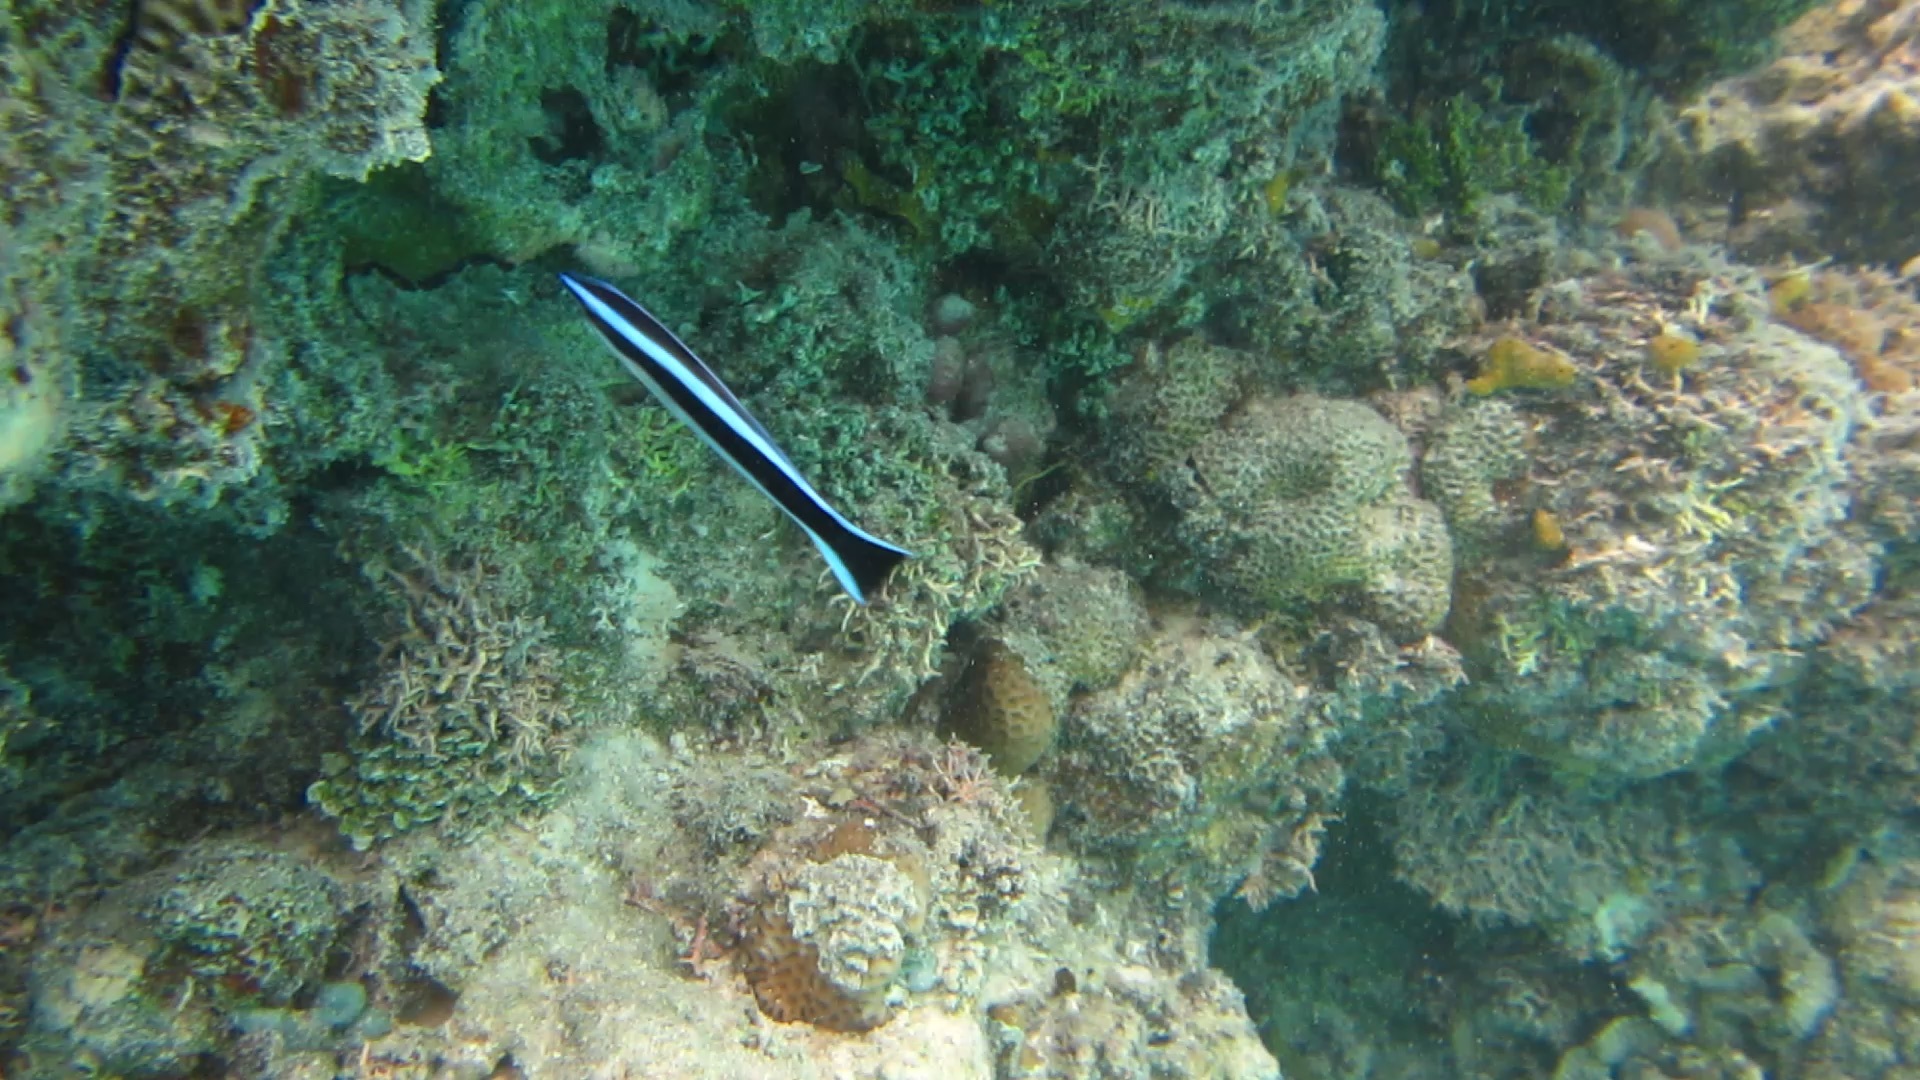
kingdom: Animalia
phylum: Chordata
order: Perciformes
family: Labridae
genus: Labroides
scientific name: Labroides dimidiatus
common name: Blue diesel wrasse
